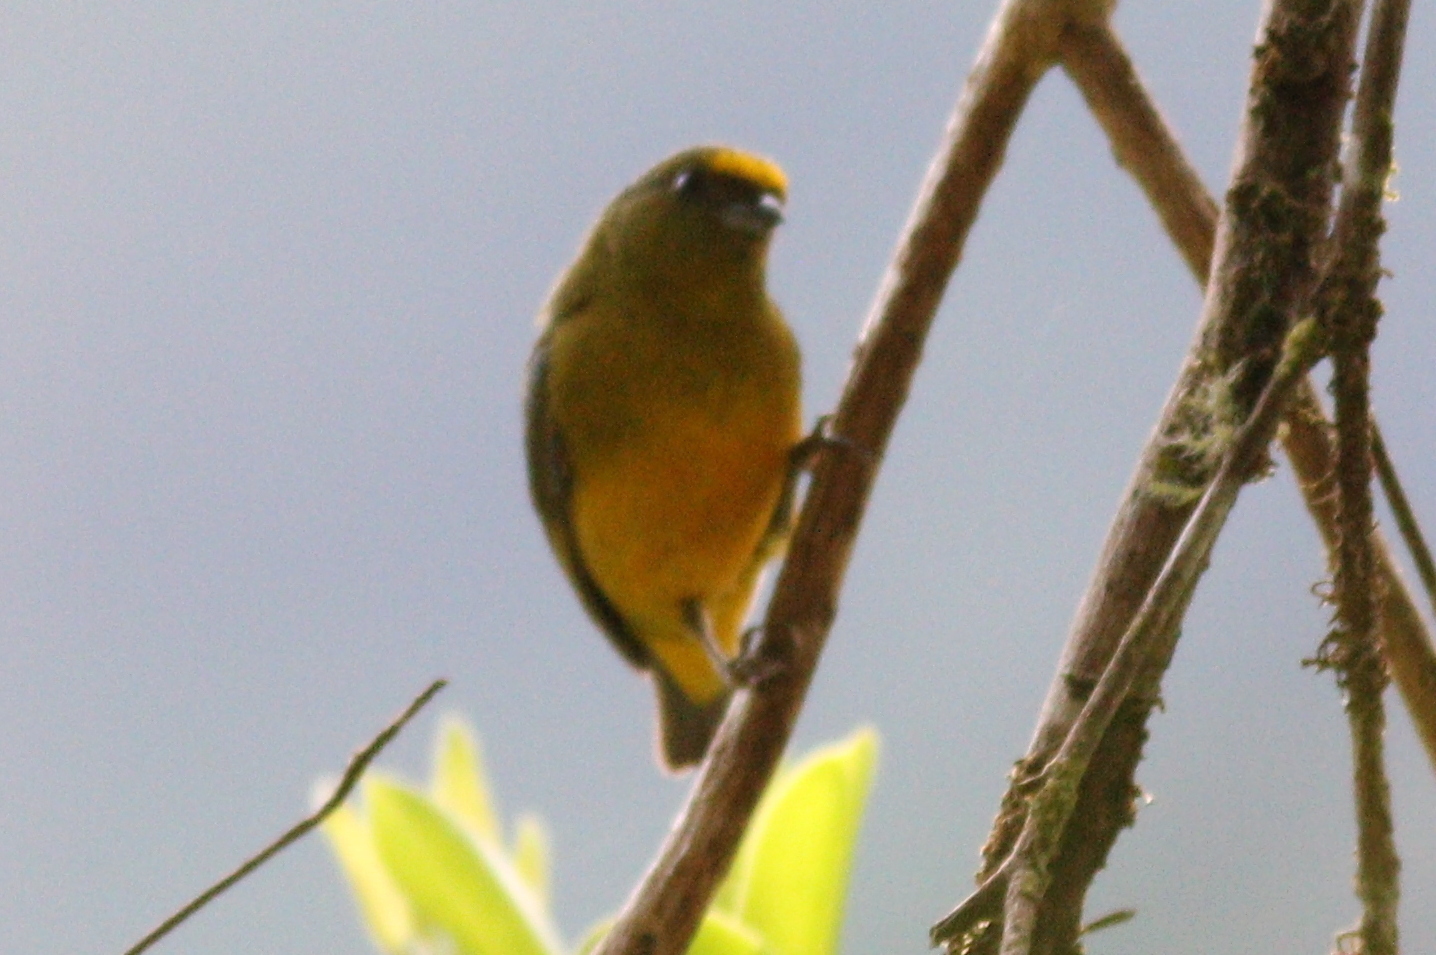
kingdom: Animalia
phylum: Chordata
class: Aves
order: Passeriformes
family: Fringillidae
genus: Euphonia
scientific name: Euphonia mesochrysa
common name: Bronze-green euphonia
